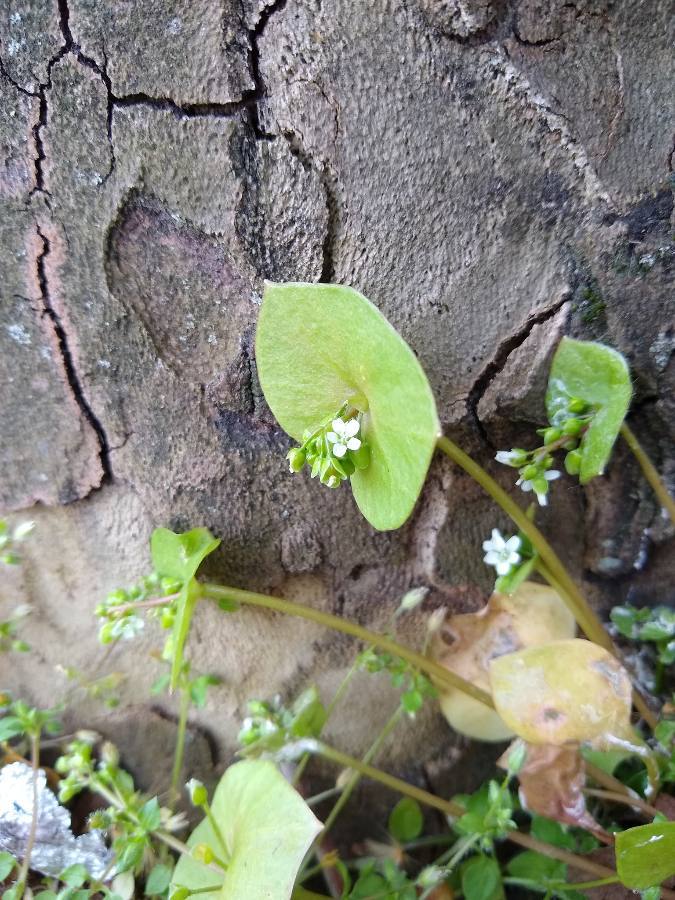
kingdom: Plantae
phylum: Tracheophyta
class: Magnoliopsida
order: Caryophyllales
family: Montiaceae
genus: Claytonia
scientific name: Claytonia perfoliata
